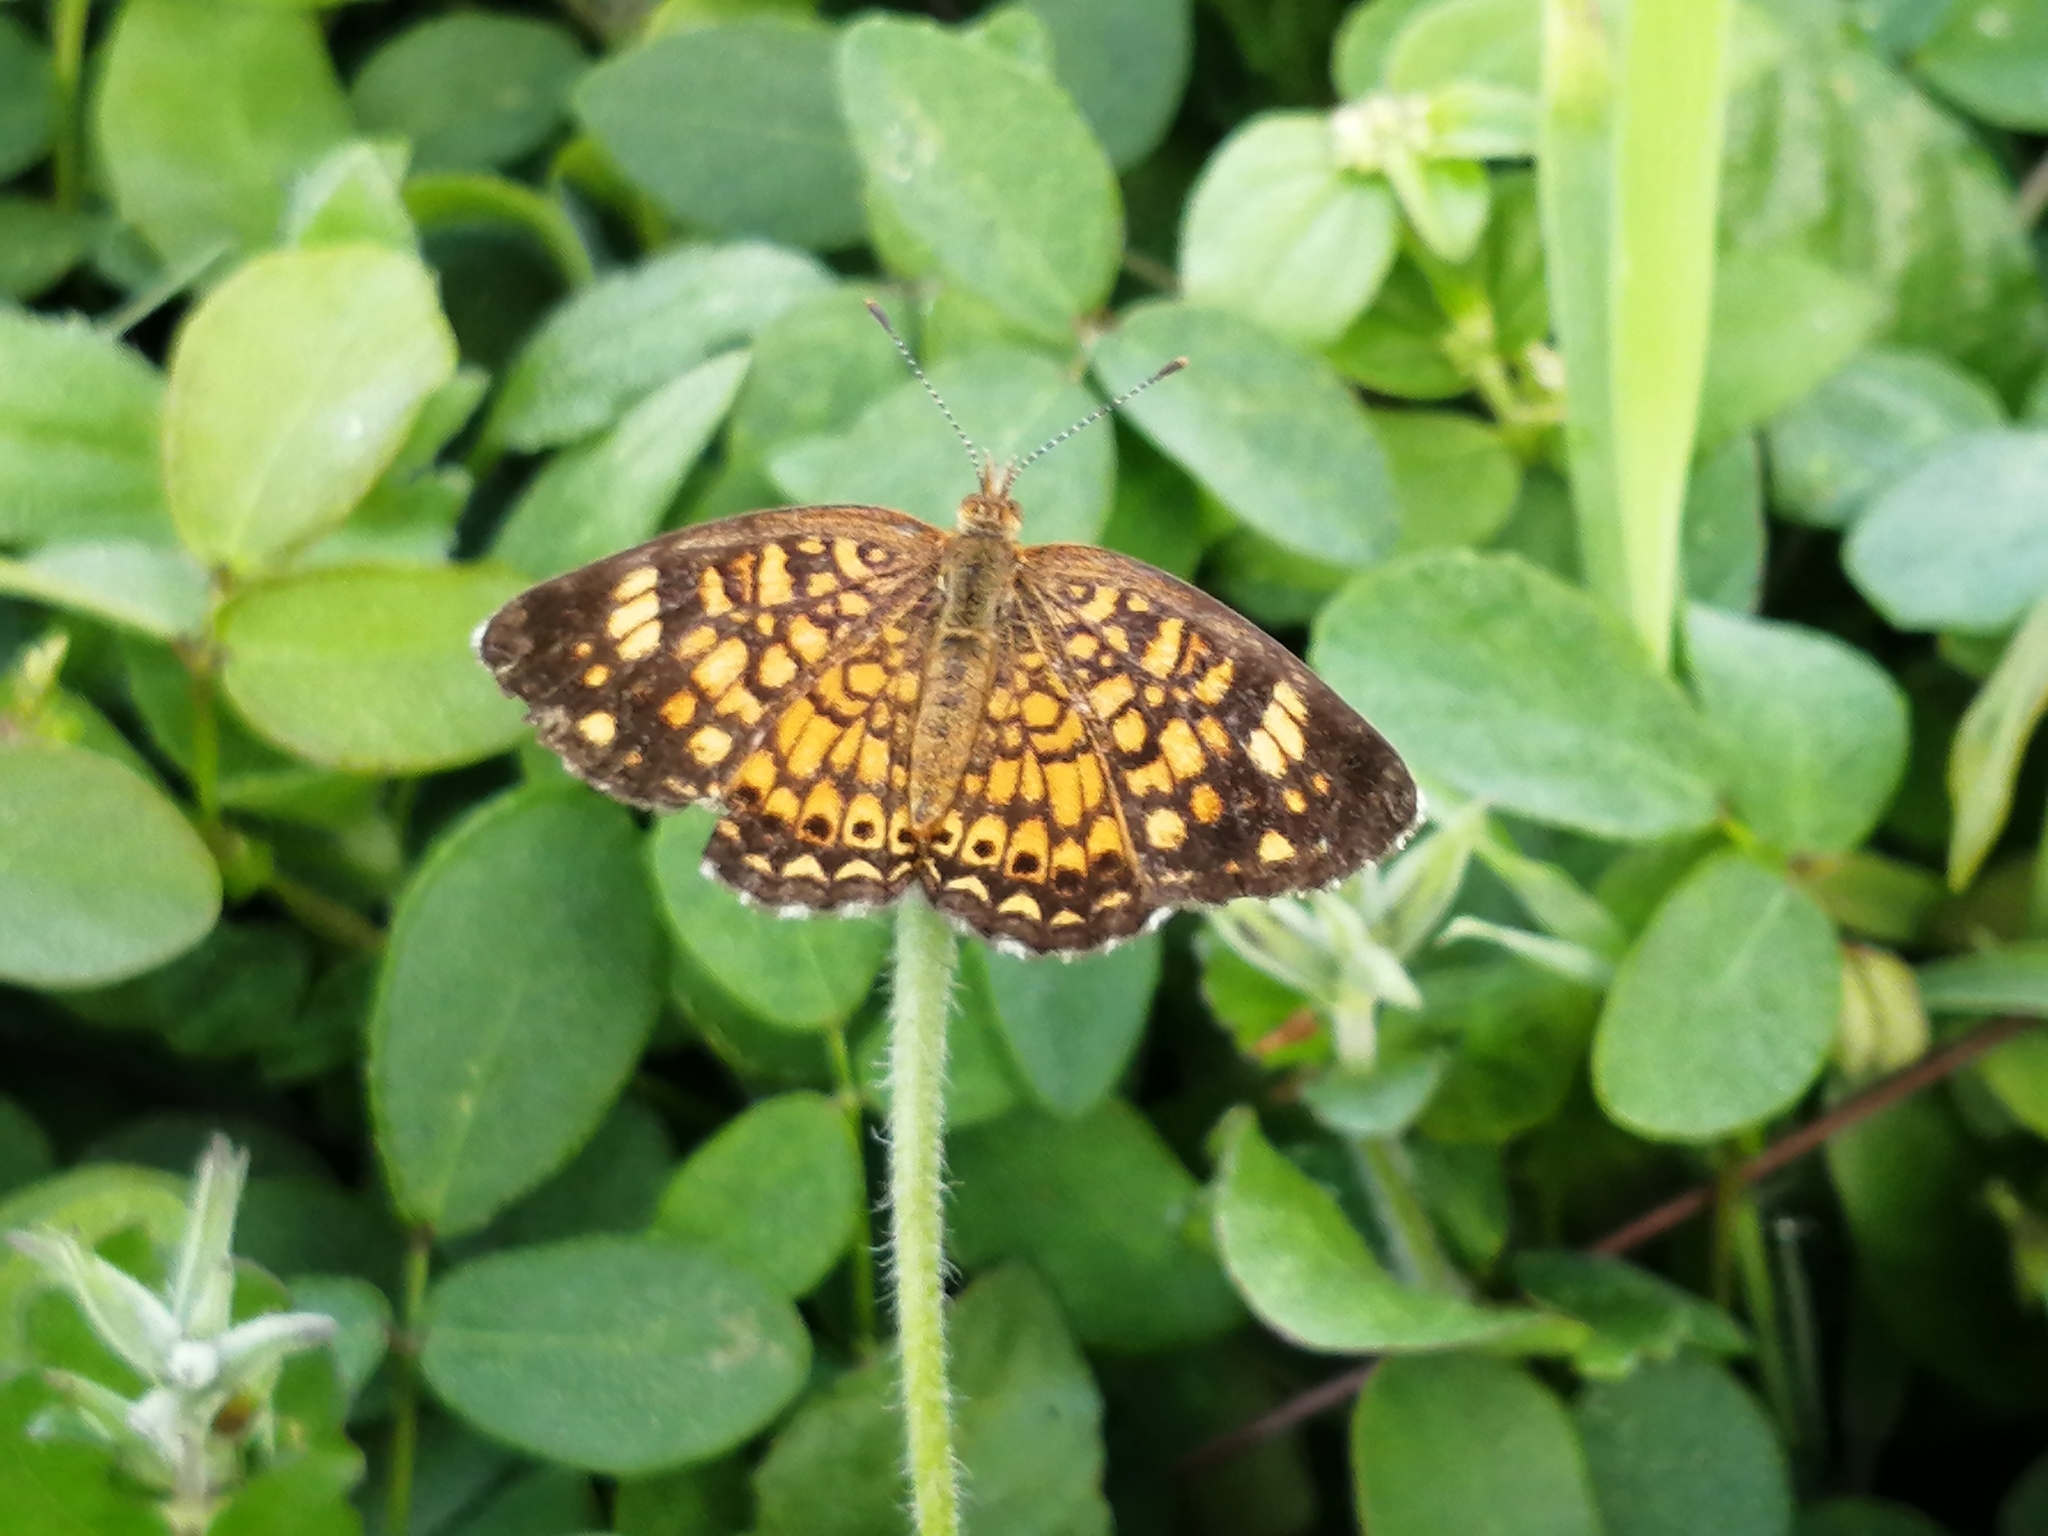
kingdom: Animalia
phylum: Arthropoda
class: Insecta
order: Lepidoptera
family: Nymphalidae
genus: Phyciodes
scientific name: Phyciodes vesta
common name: Vesta crescent
